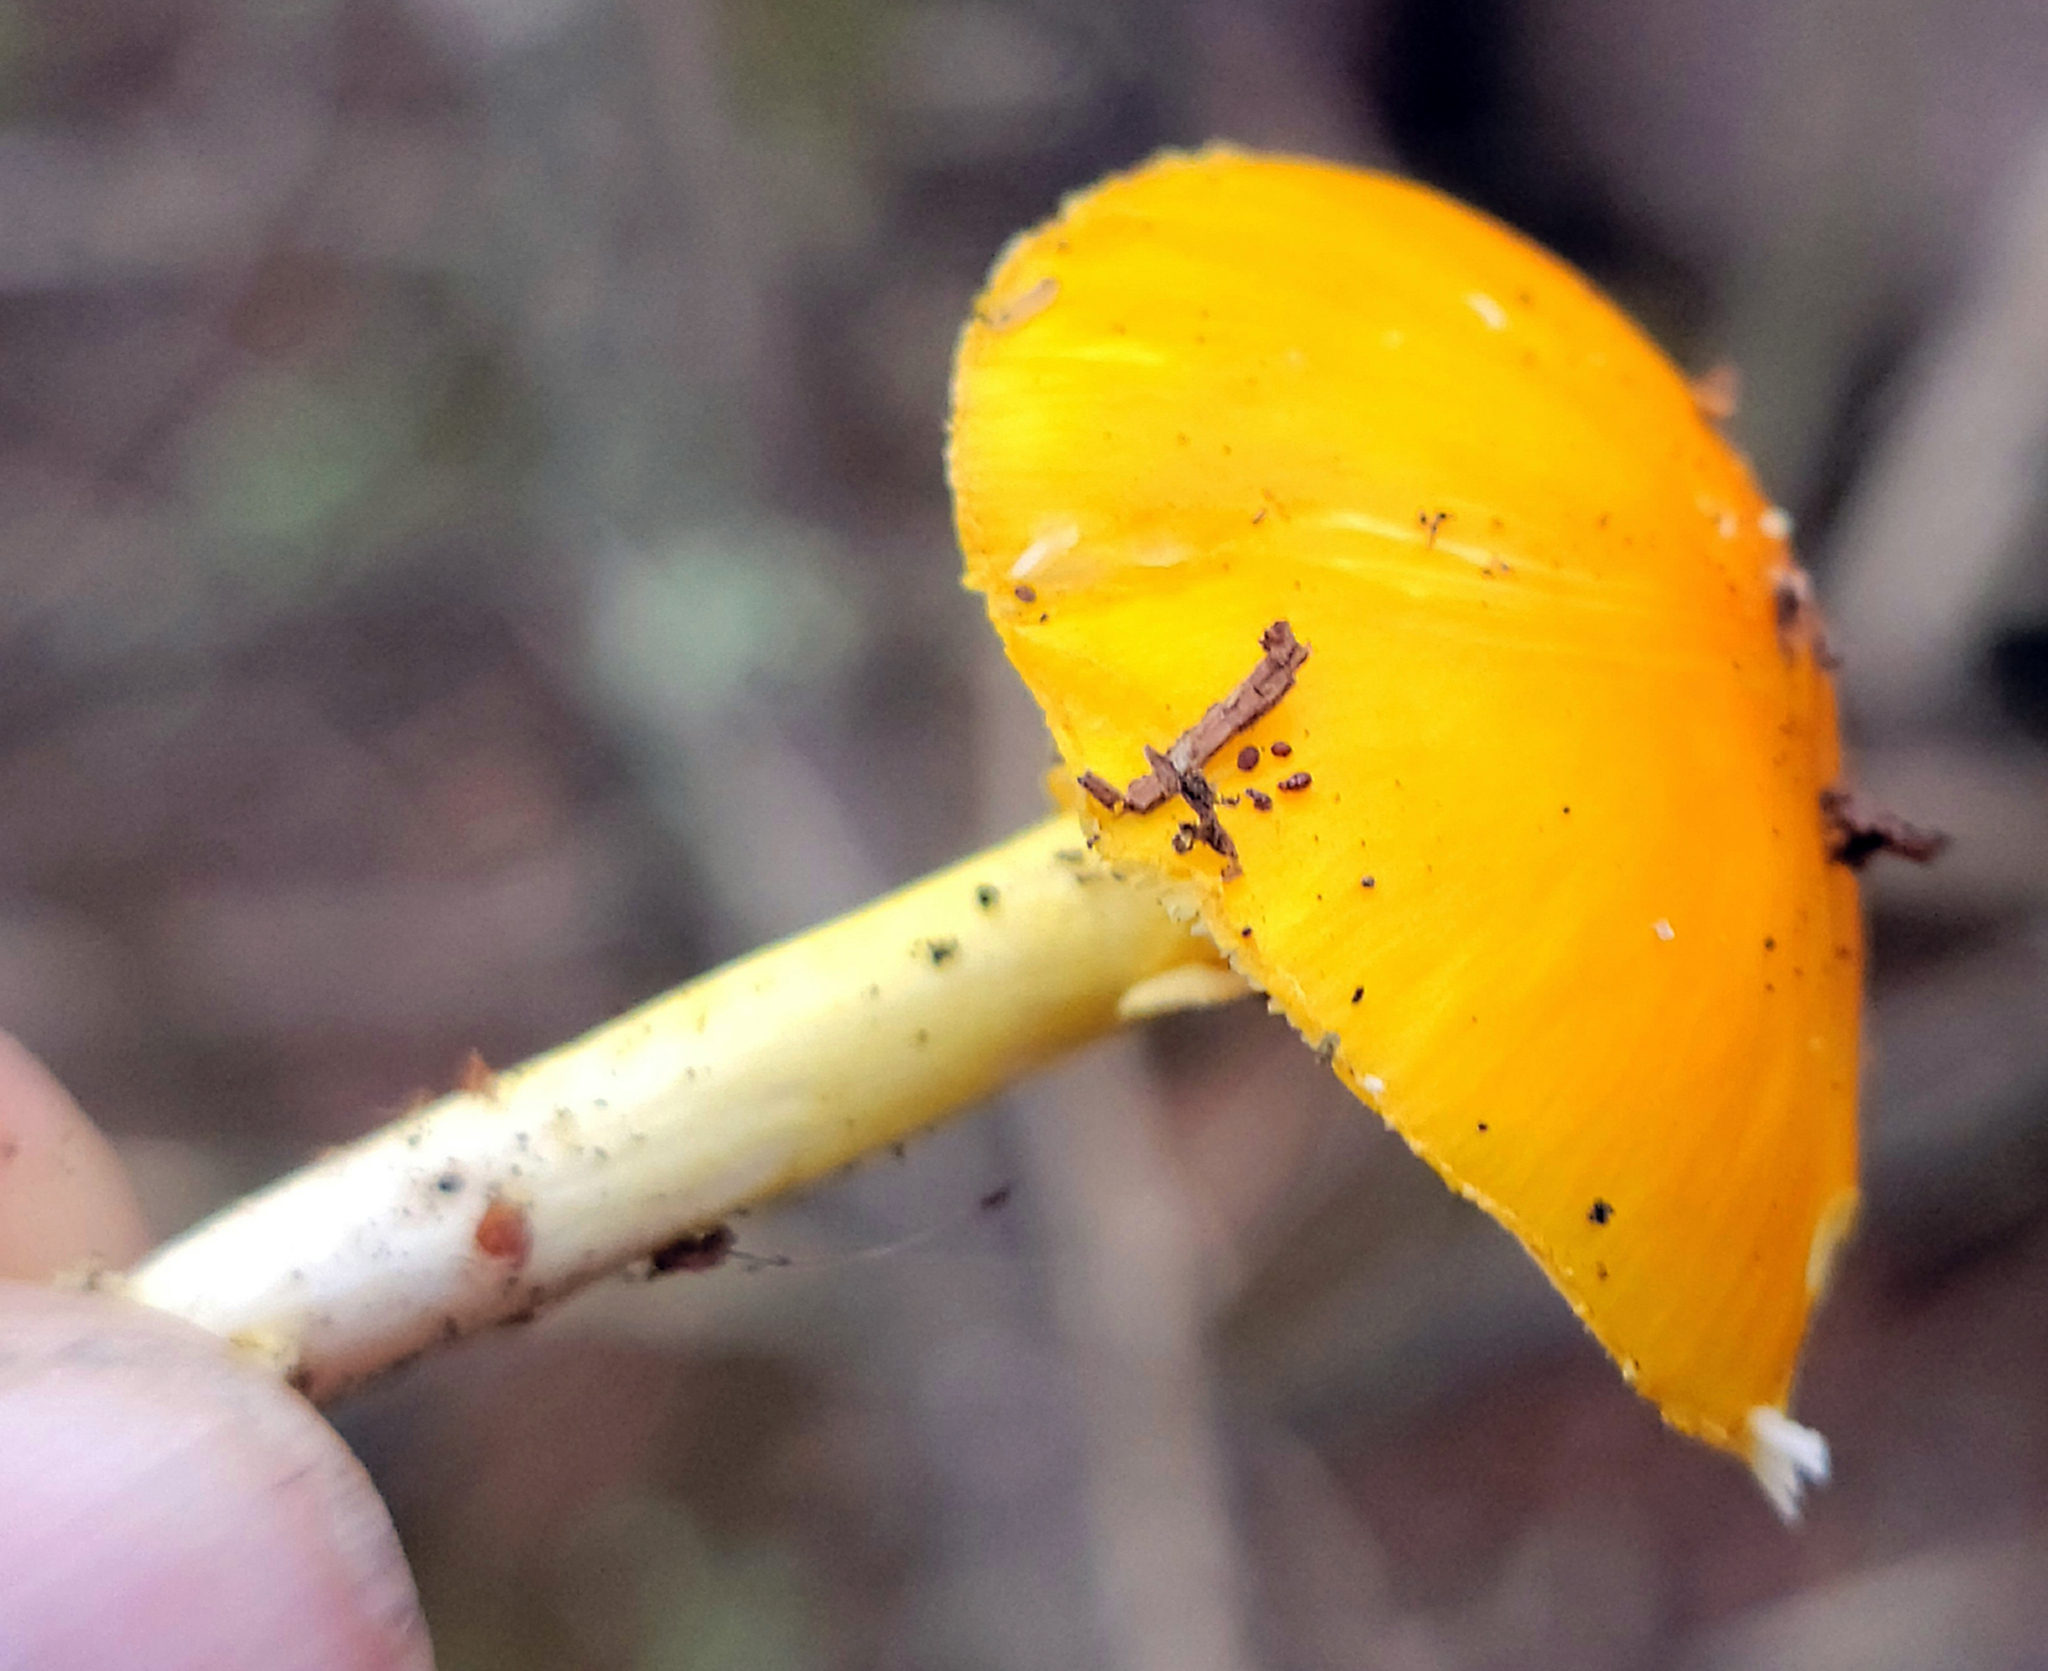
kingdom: Fungi
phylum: Basidiomycota
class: Agaricomycetes
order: Agaricales
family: Amanitaceae
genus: Amanita
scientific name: Amanita flavoconia
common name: Yellow patches
